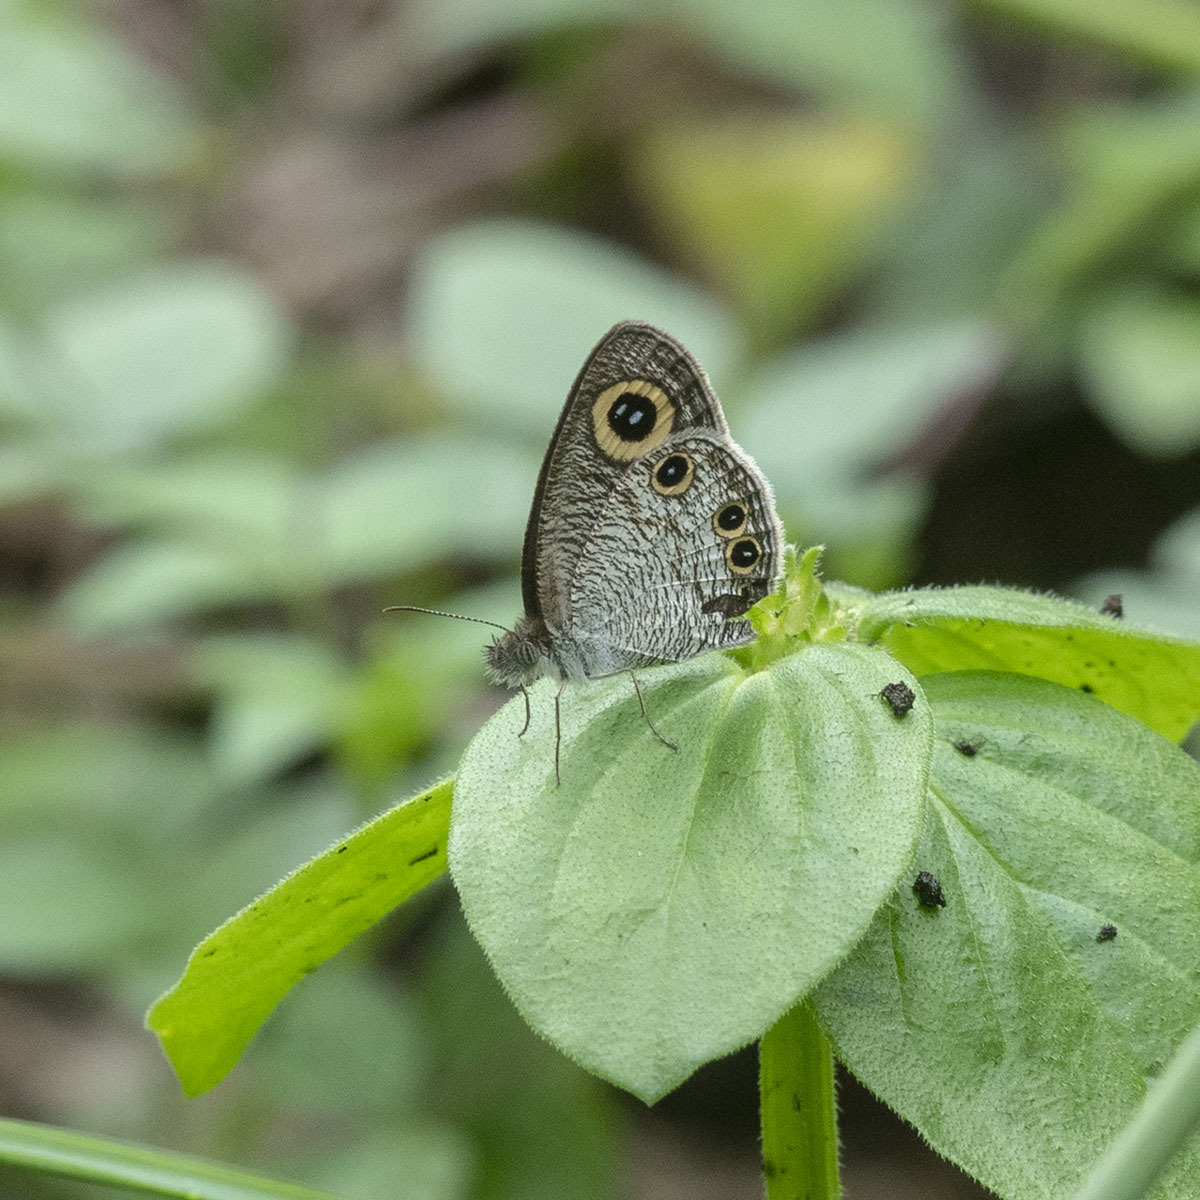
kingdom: Animalia
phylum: Arthropoda
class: Insecta
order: Lepidoptera
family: Nymphalidae
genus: Ypthima
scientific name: Ypthima huebneri
